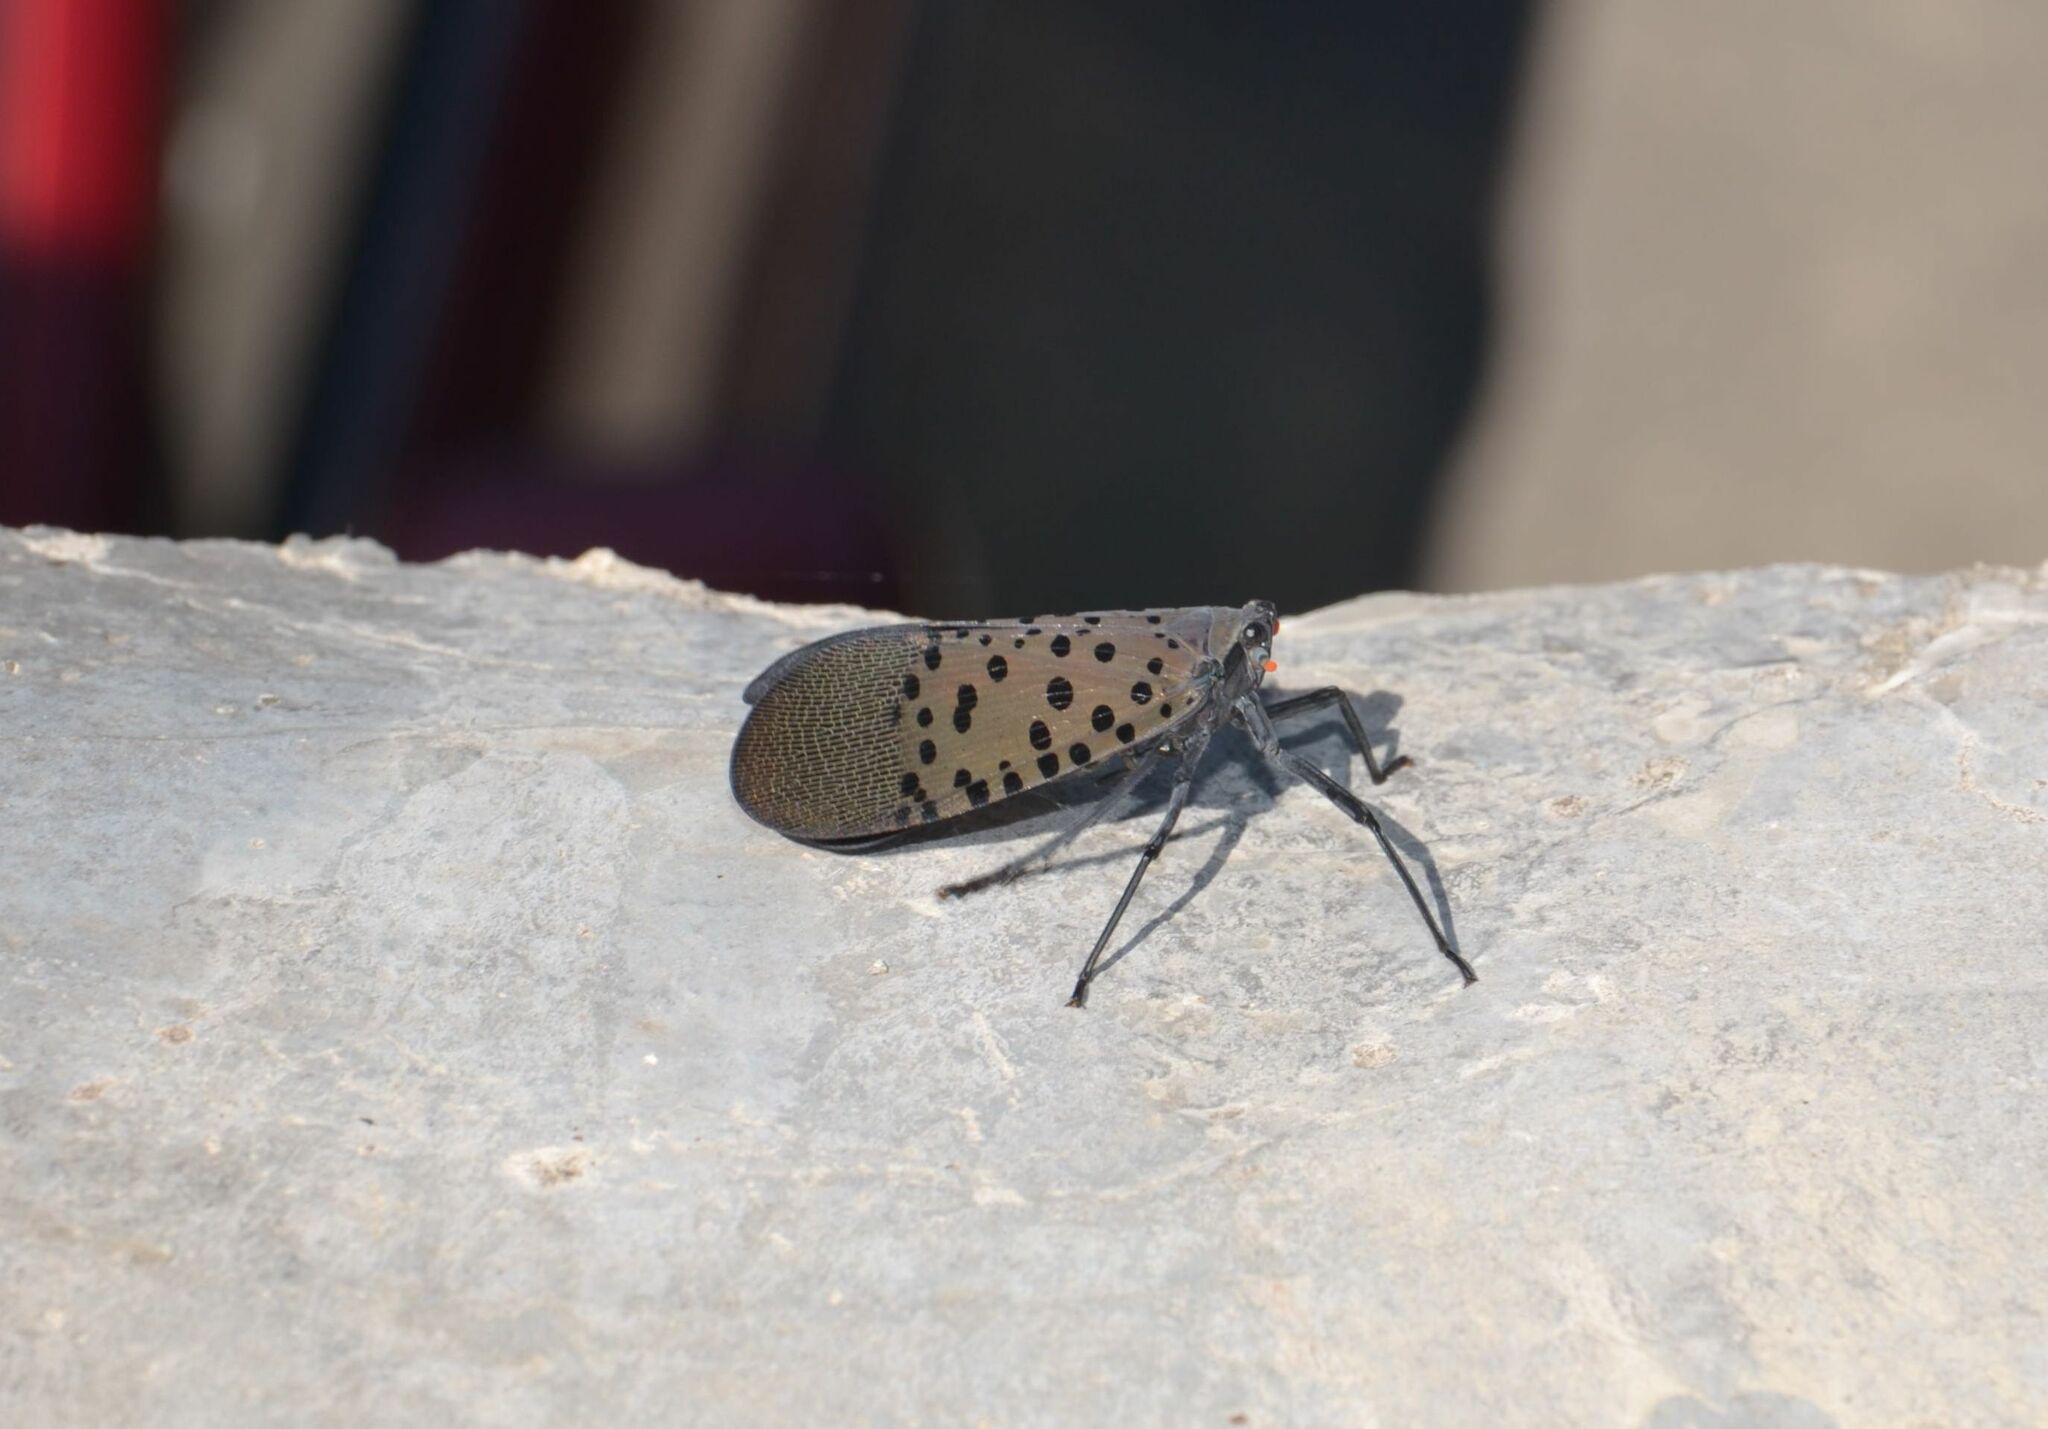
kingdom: Animalia
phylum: Arthropoda
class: Insecta
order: Hemiptera
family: Fulgoridae
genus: Lycorma
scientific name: Lycorma delicatula
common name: Spotted lanternfly
